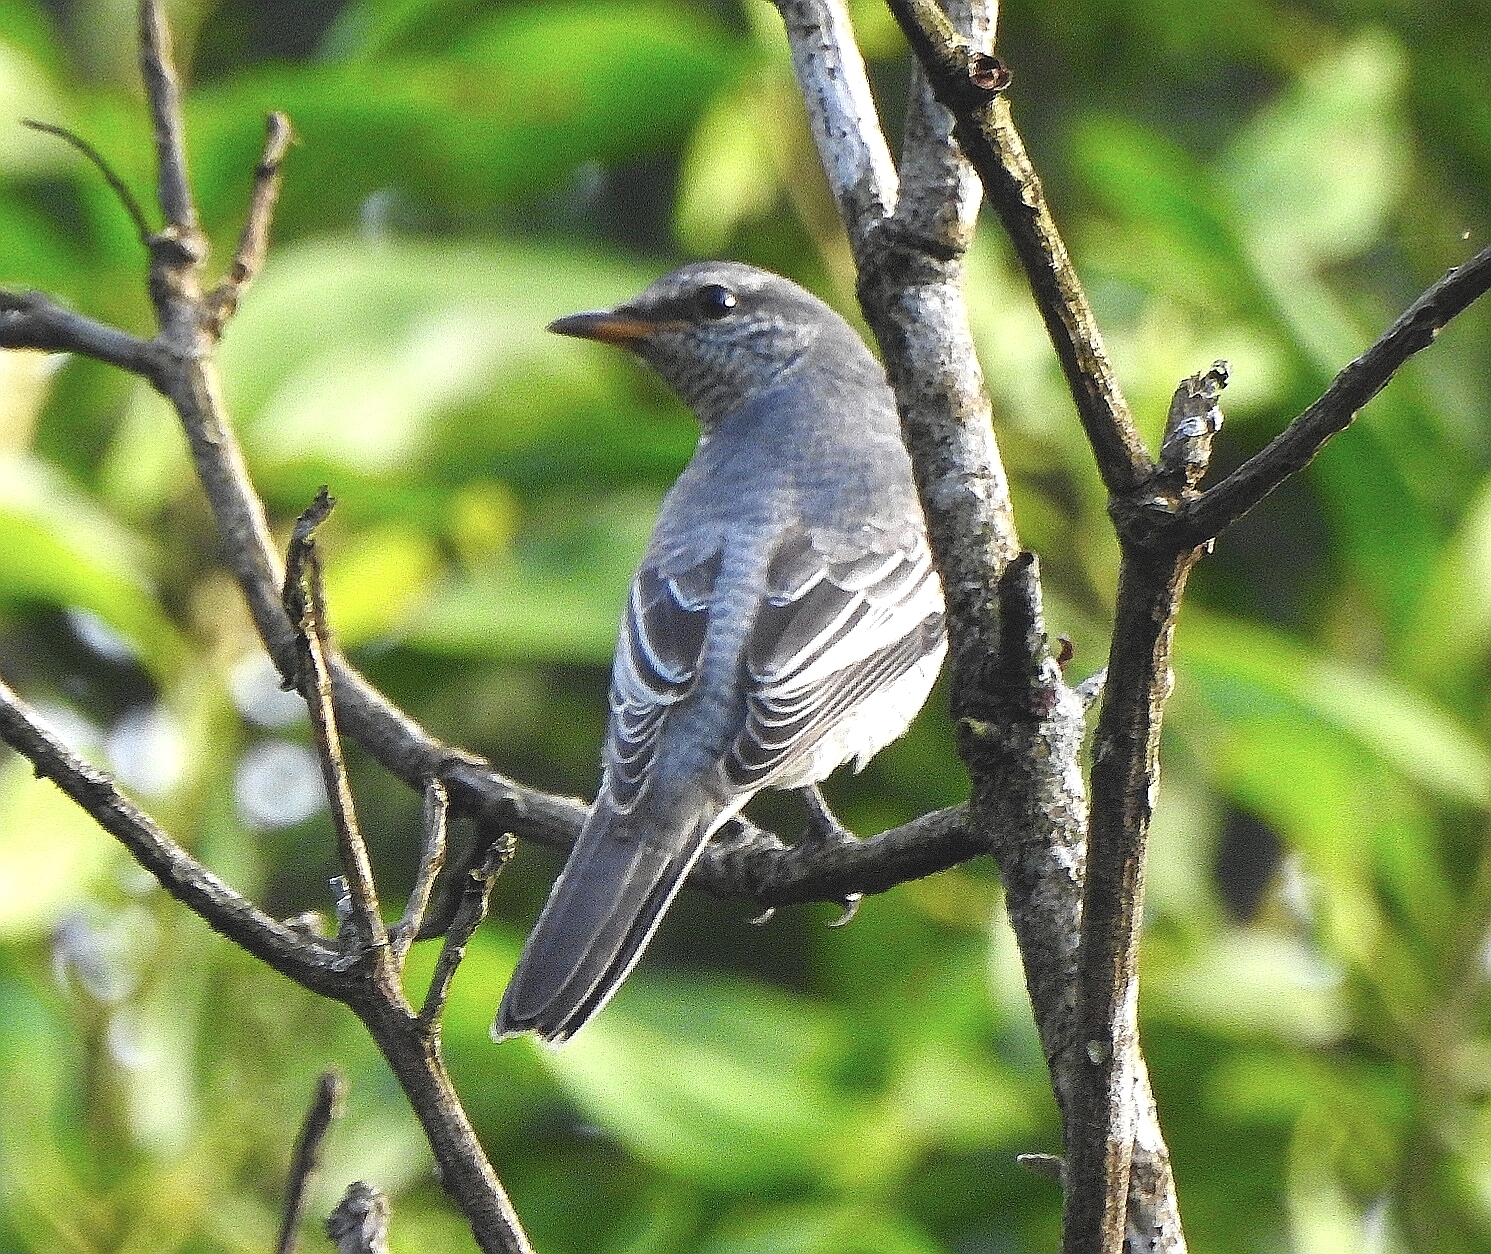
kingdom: Animalia
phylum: Chordata
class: Aves
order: Passeriformes
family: Campephagidae
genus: Coracina
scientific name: Coracina melanoptera
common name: Black-headed cuckooshrike
